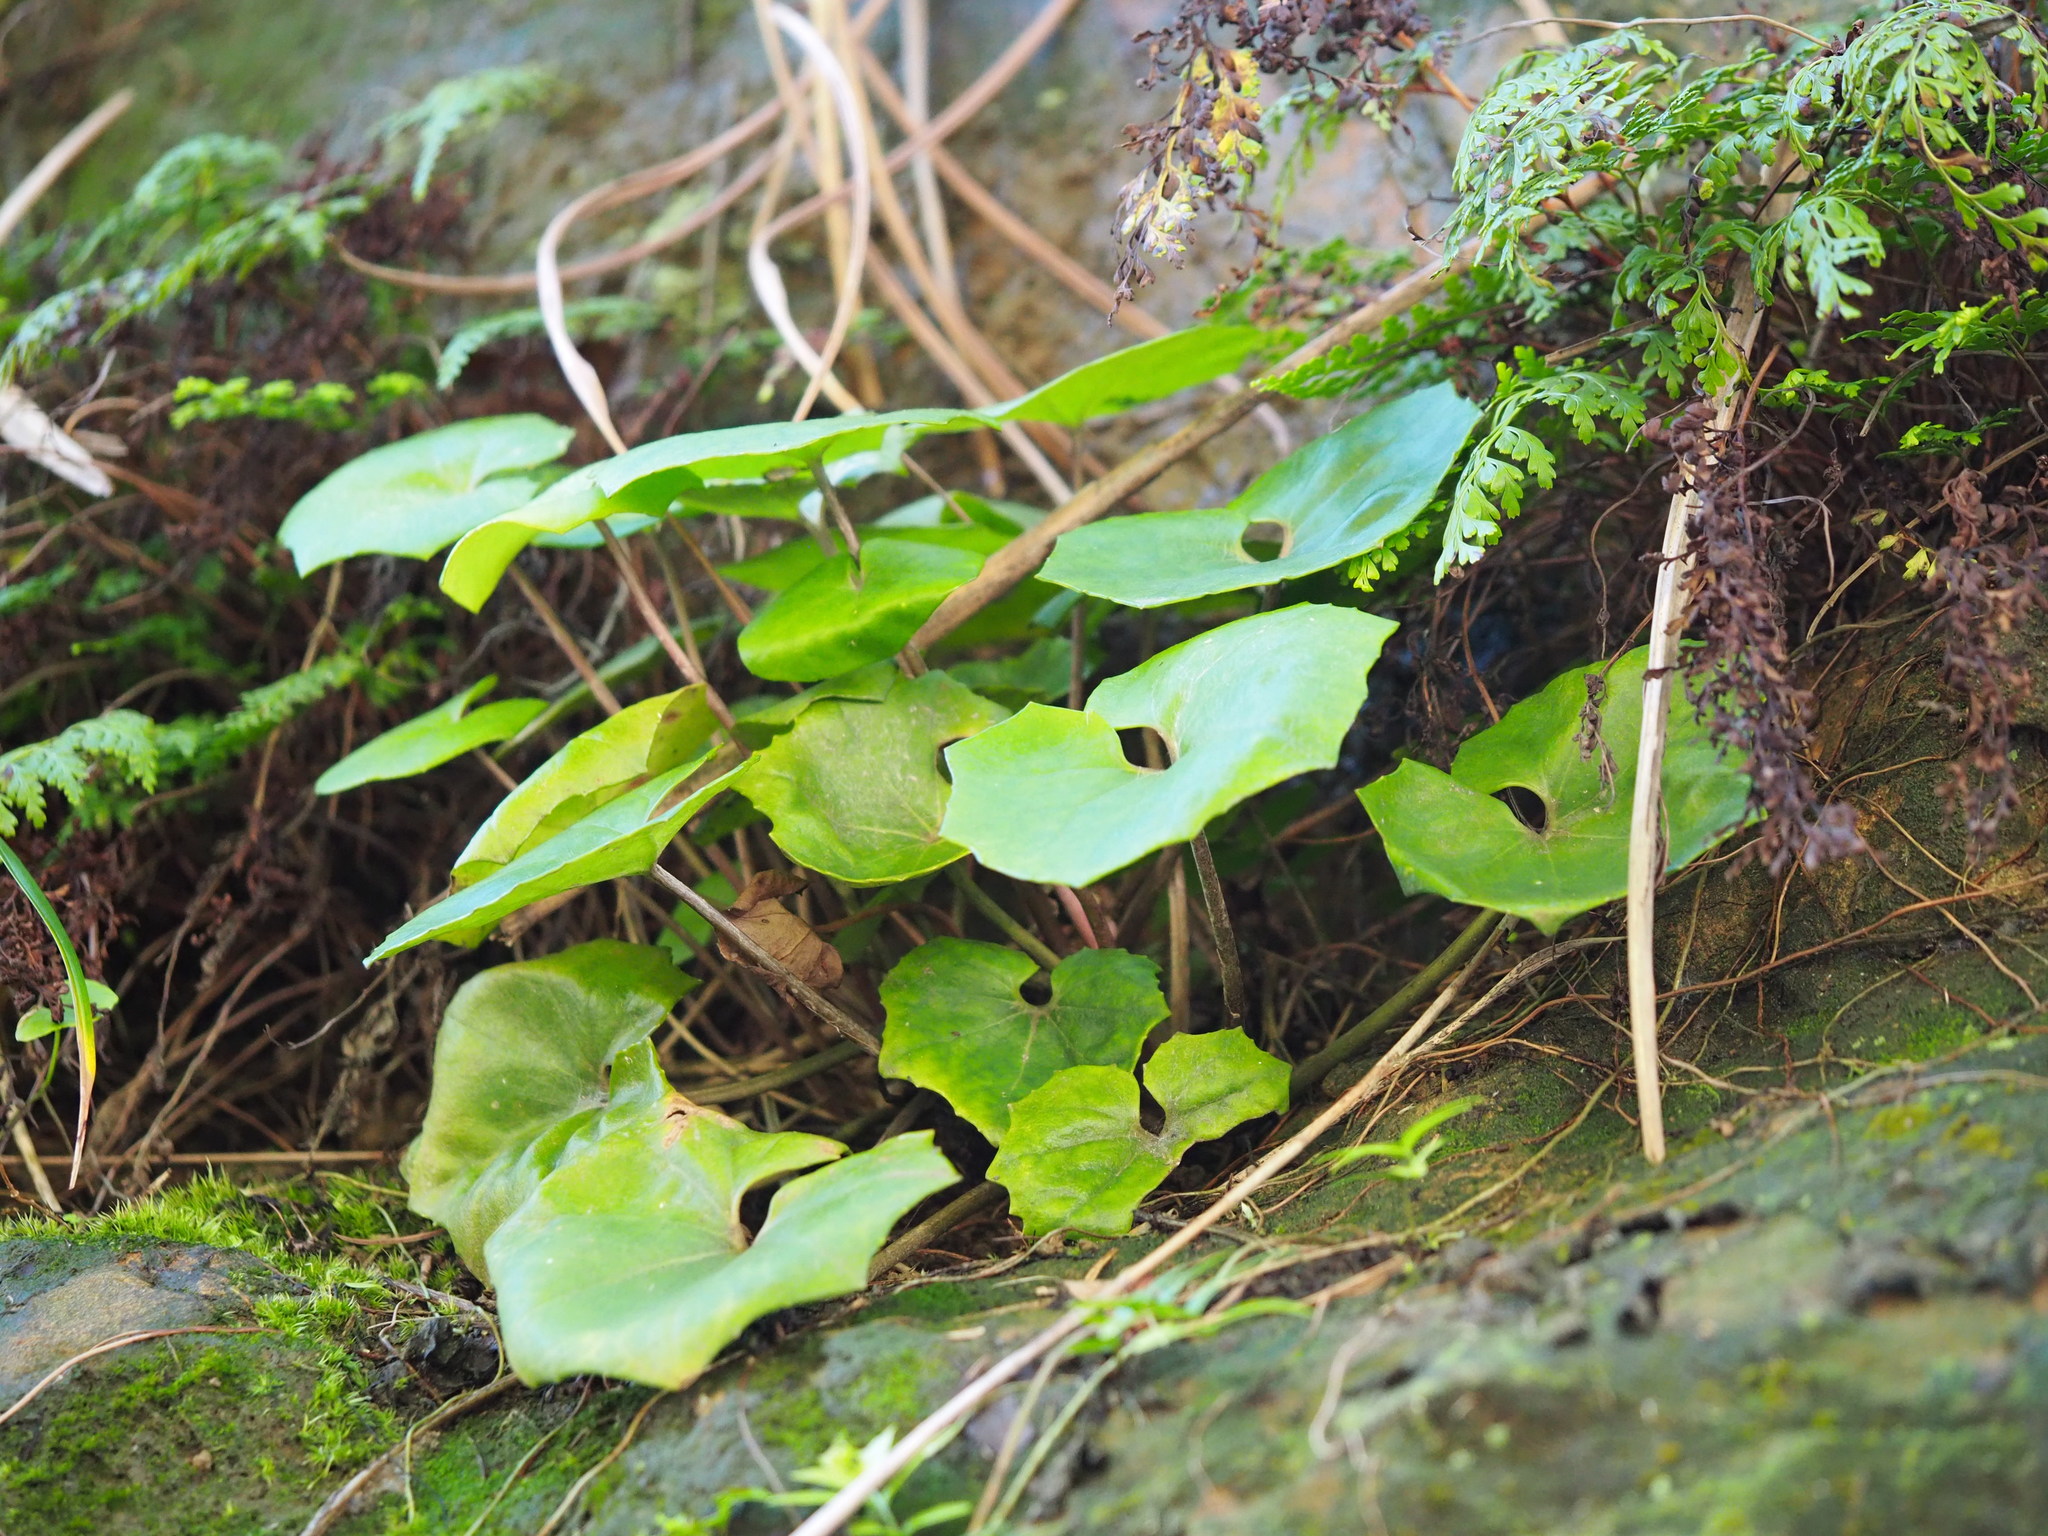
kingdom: Plantae
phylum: Tracheophyta
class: Magnoliopsida
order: Asterales
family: Asteraceae
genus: Farfugium
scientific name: Farfugium japonicum
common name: Leopardplant
